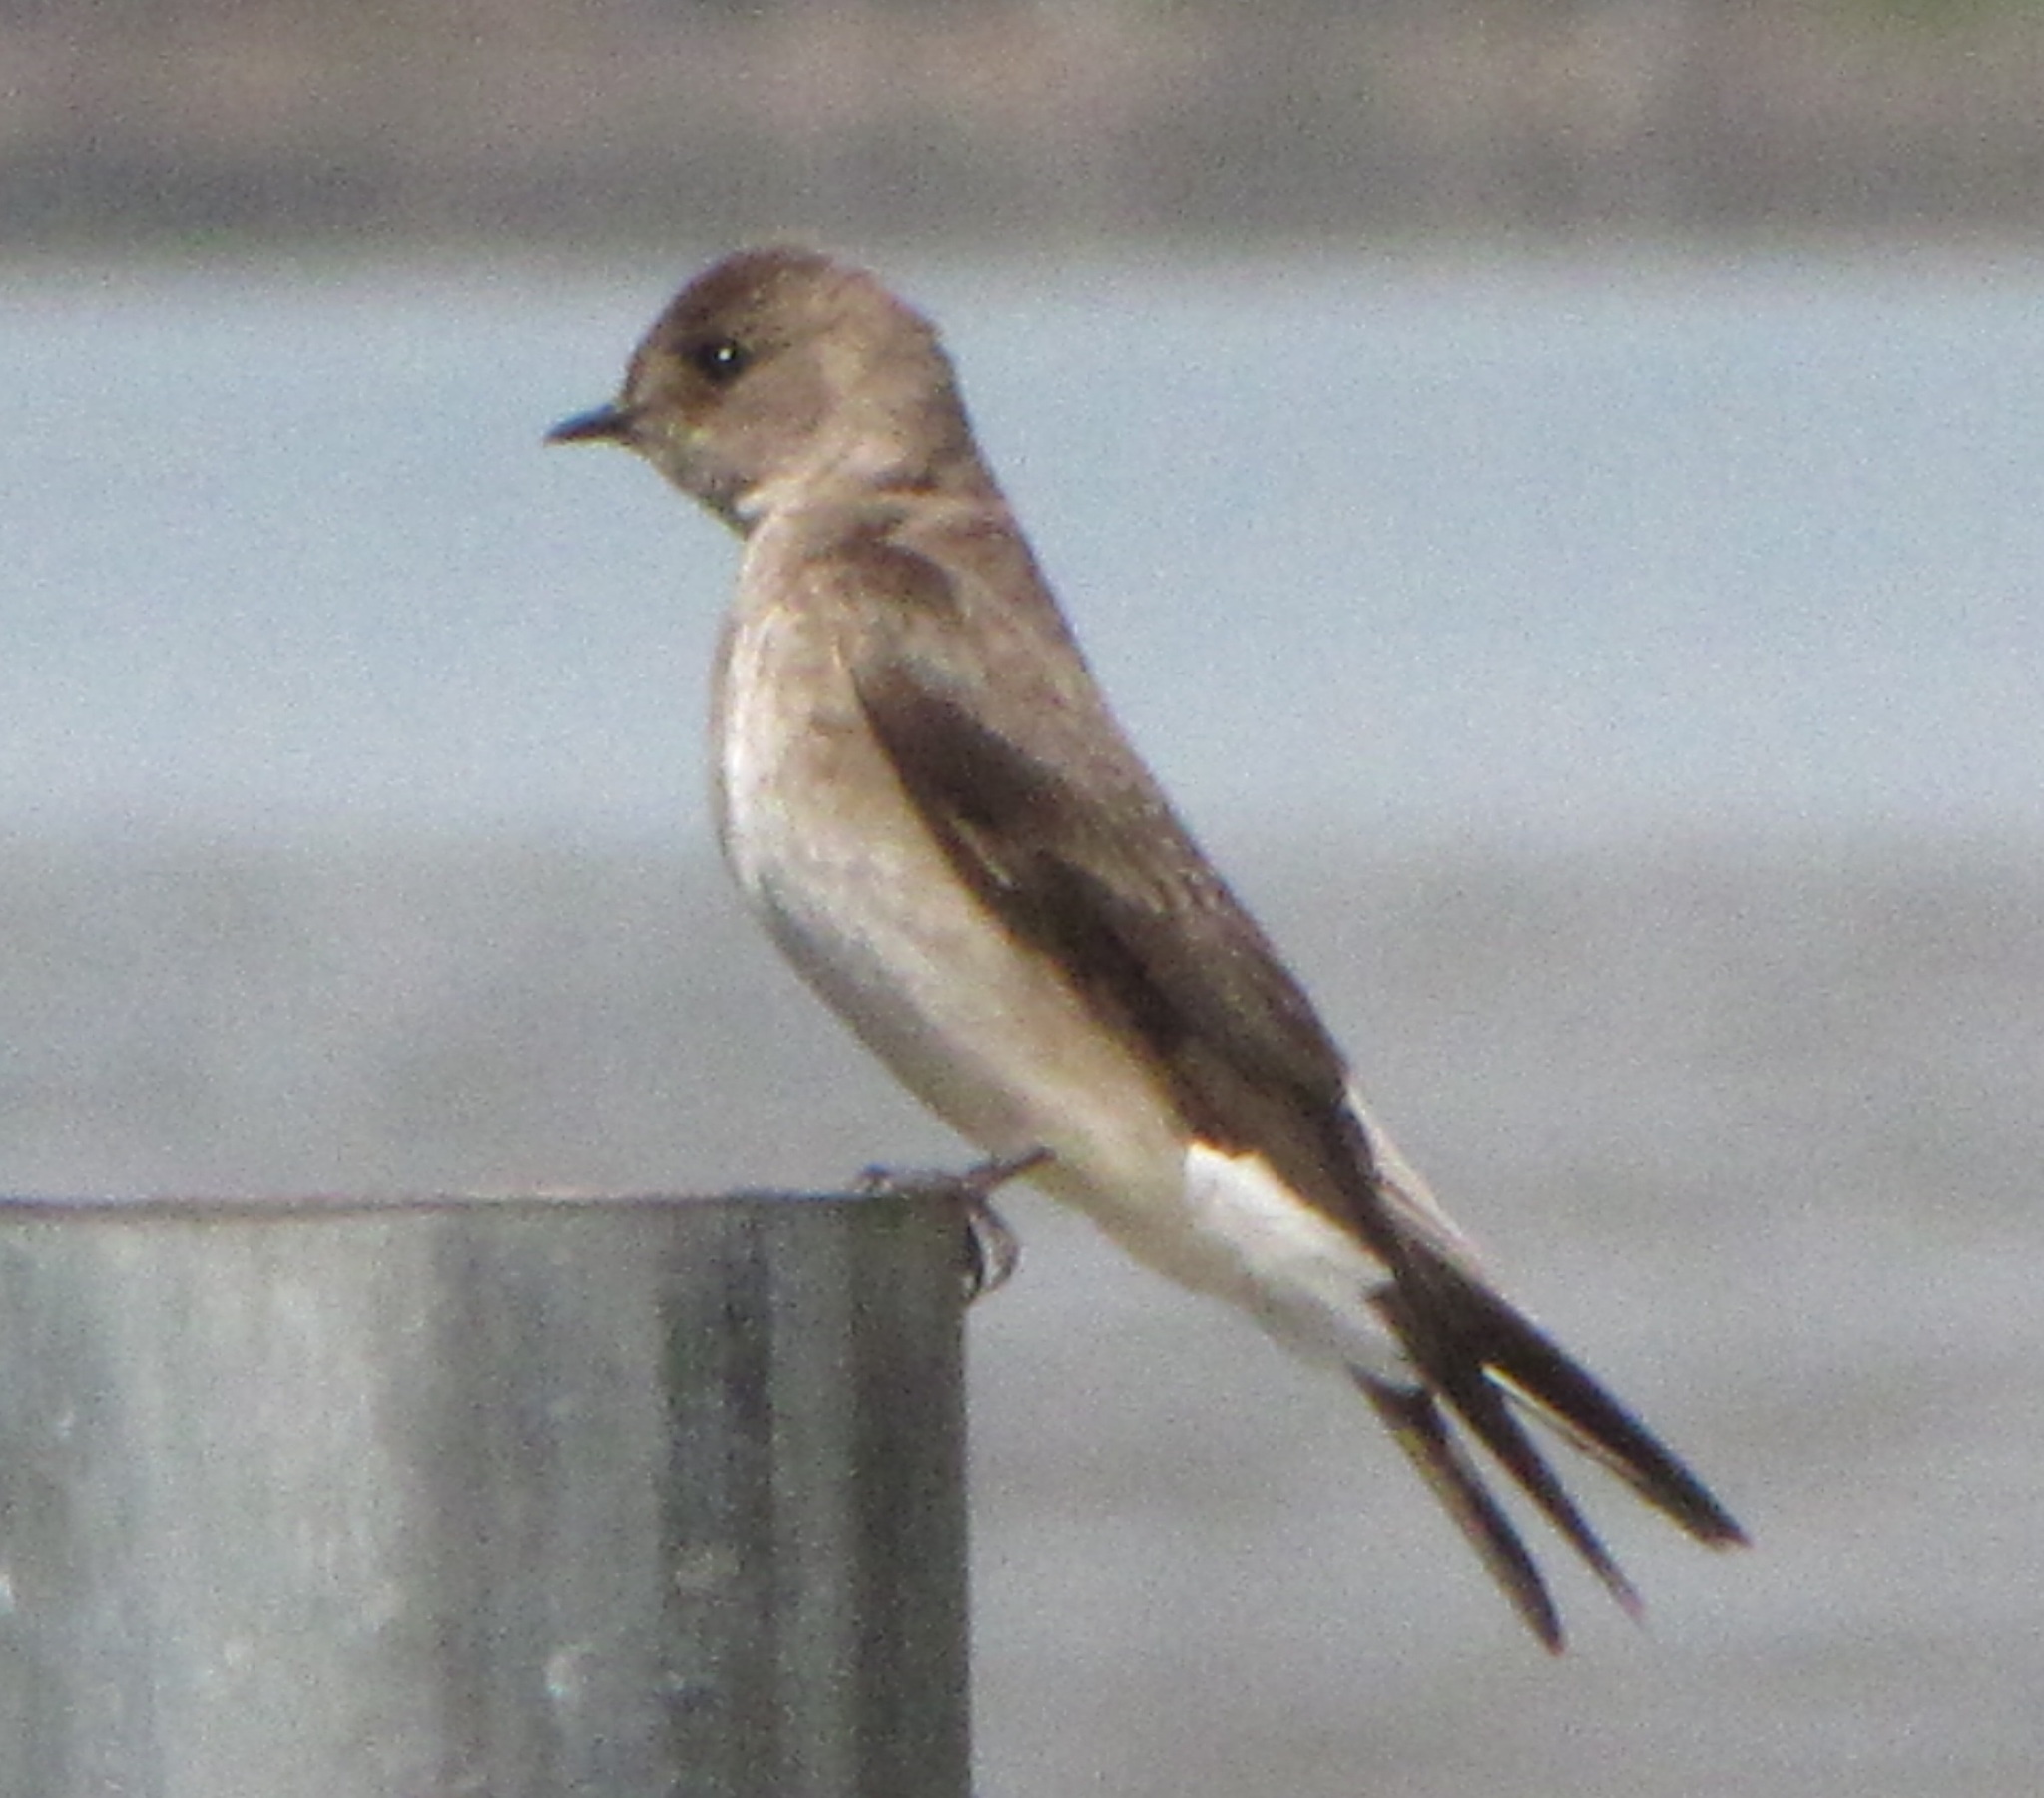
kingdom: Animalia
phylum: Chordata
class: Aves
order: Passeriformes
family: Hirundinidae
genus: Stelgidopteryx
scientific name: Stelgidopteryx serripennis
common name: Northern rough-winged swallow
